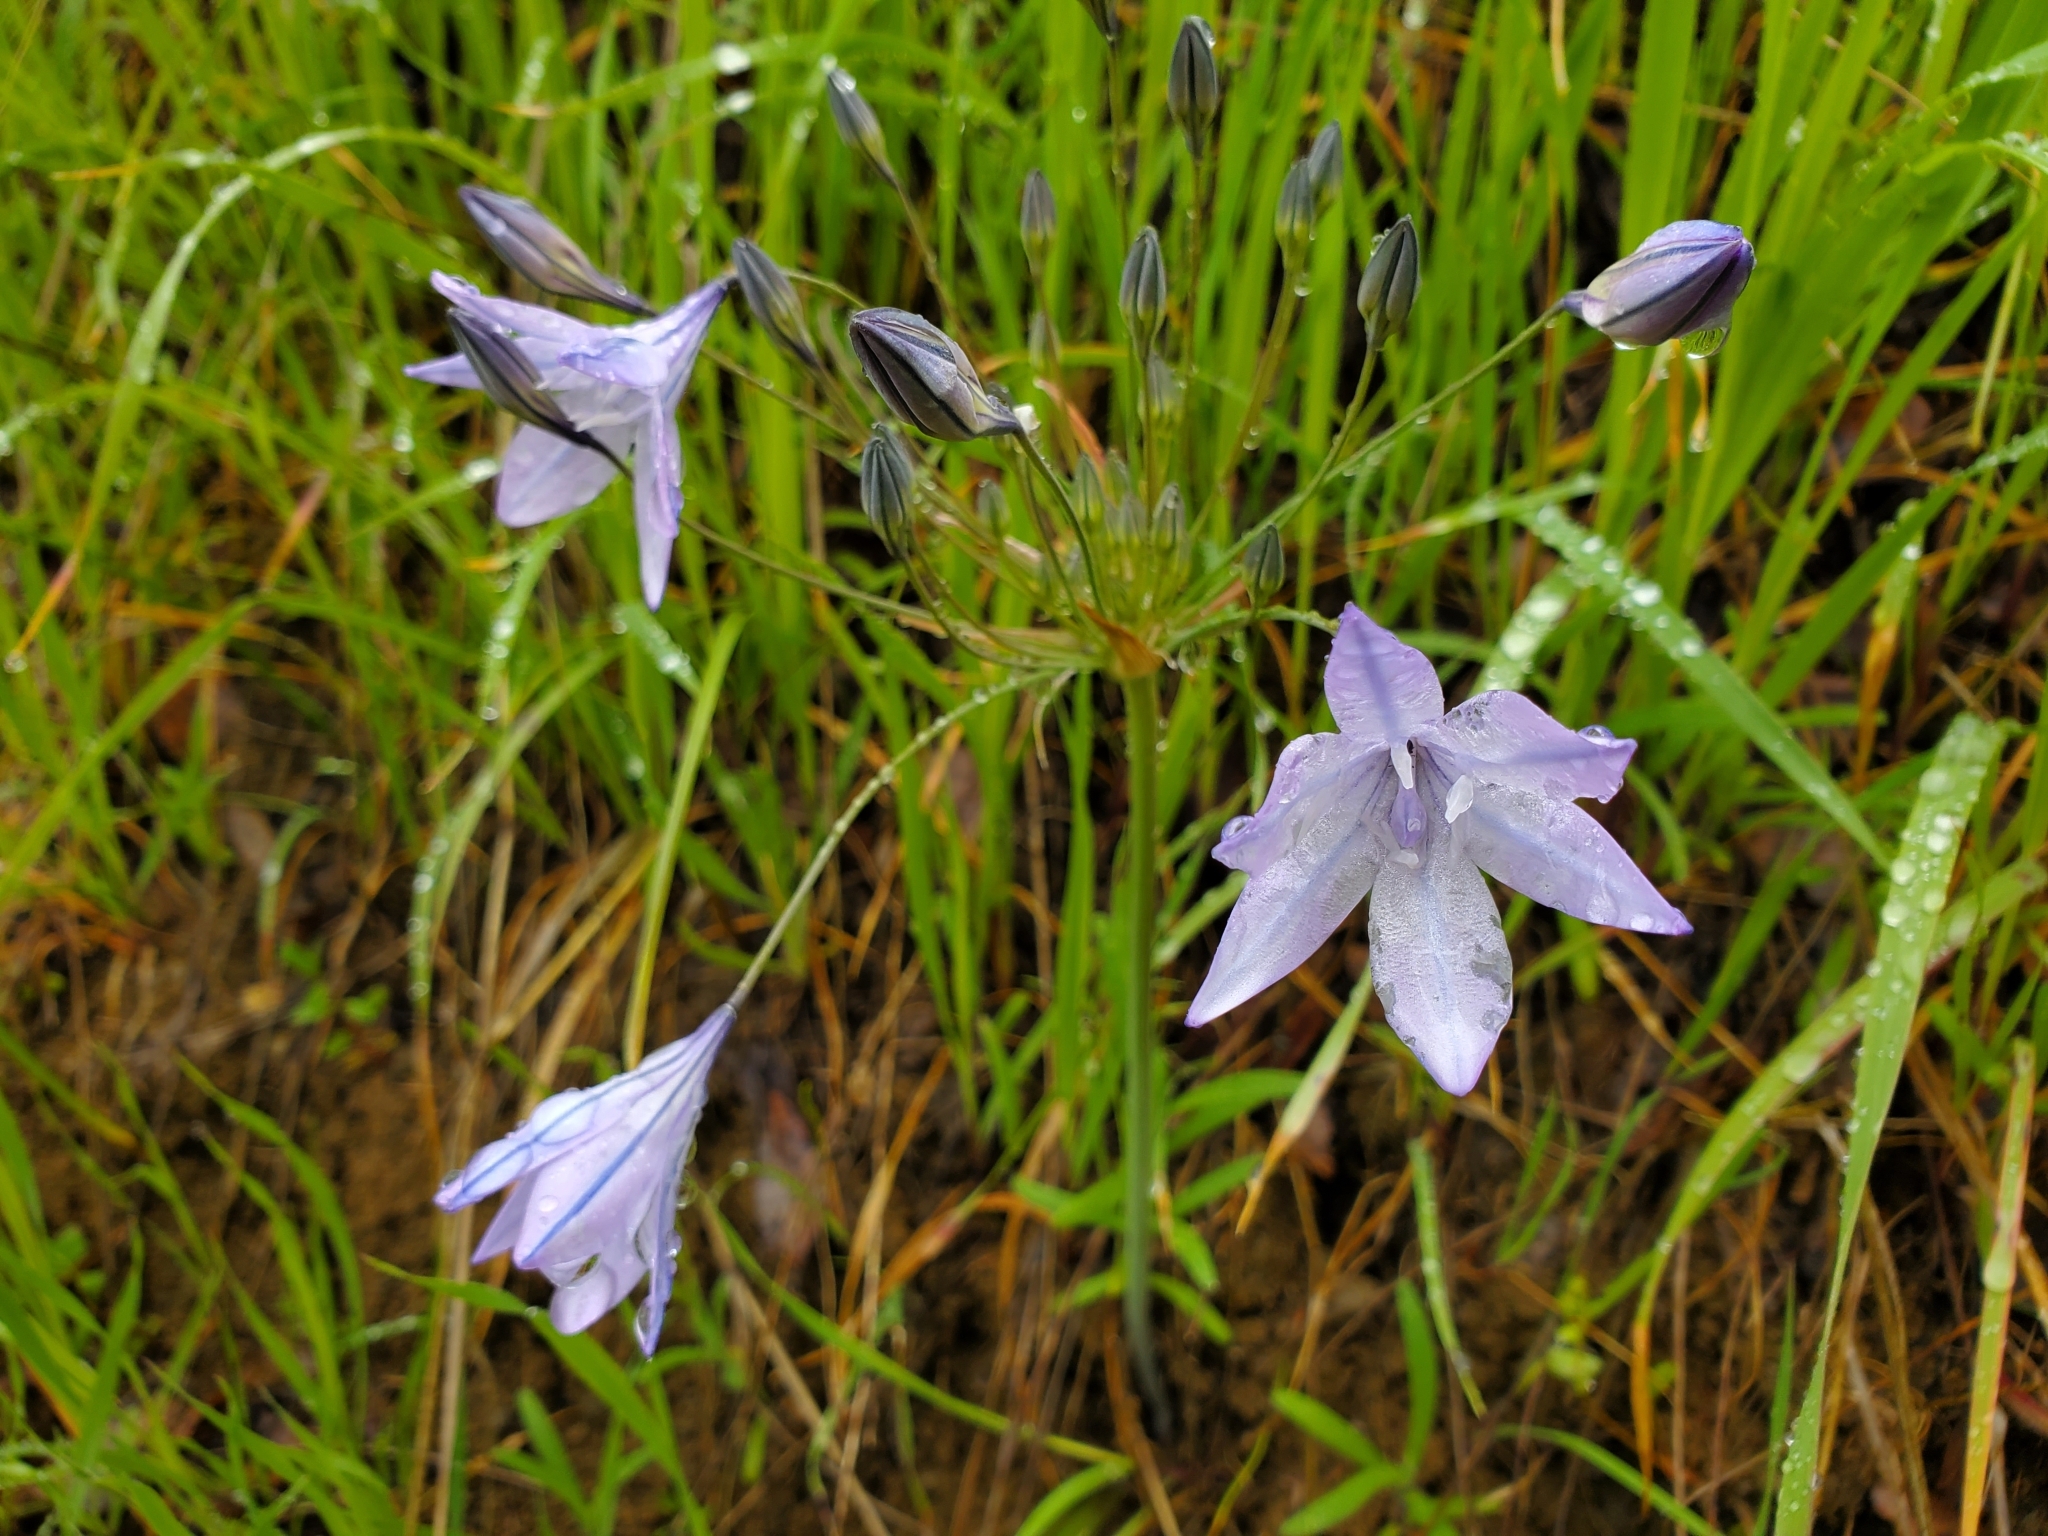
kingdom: Plantae
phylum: Tracheophyta
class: Liliopsida
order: Asparagales
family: Asparagaceae
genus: Triteleia
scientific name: Triteleia laxa
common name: Triplet-lily
